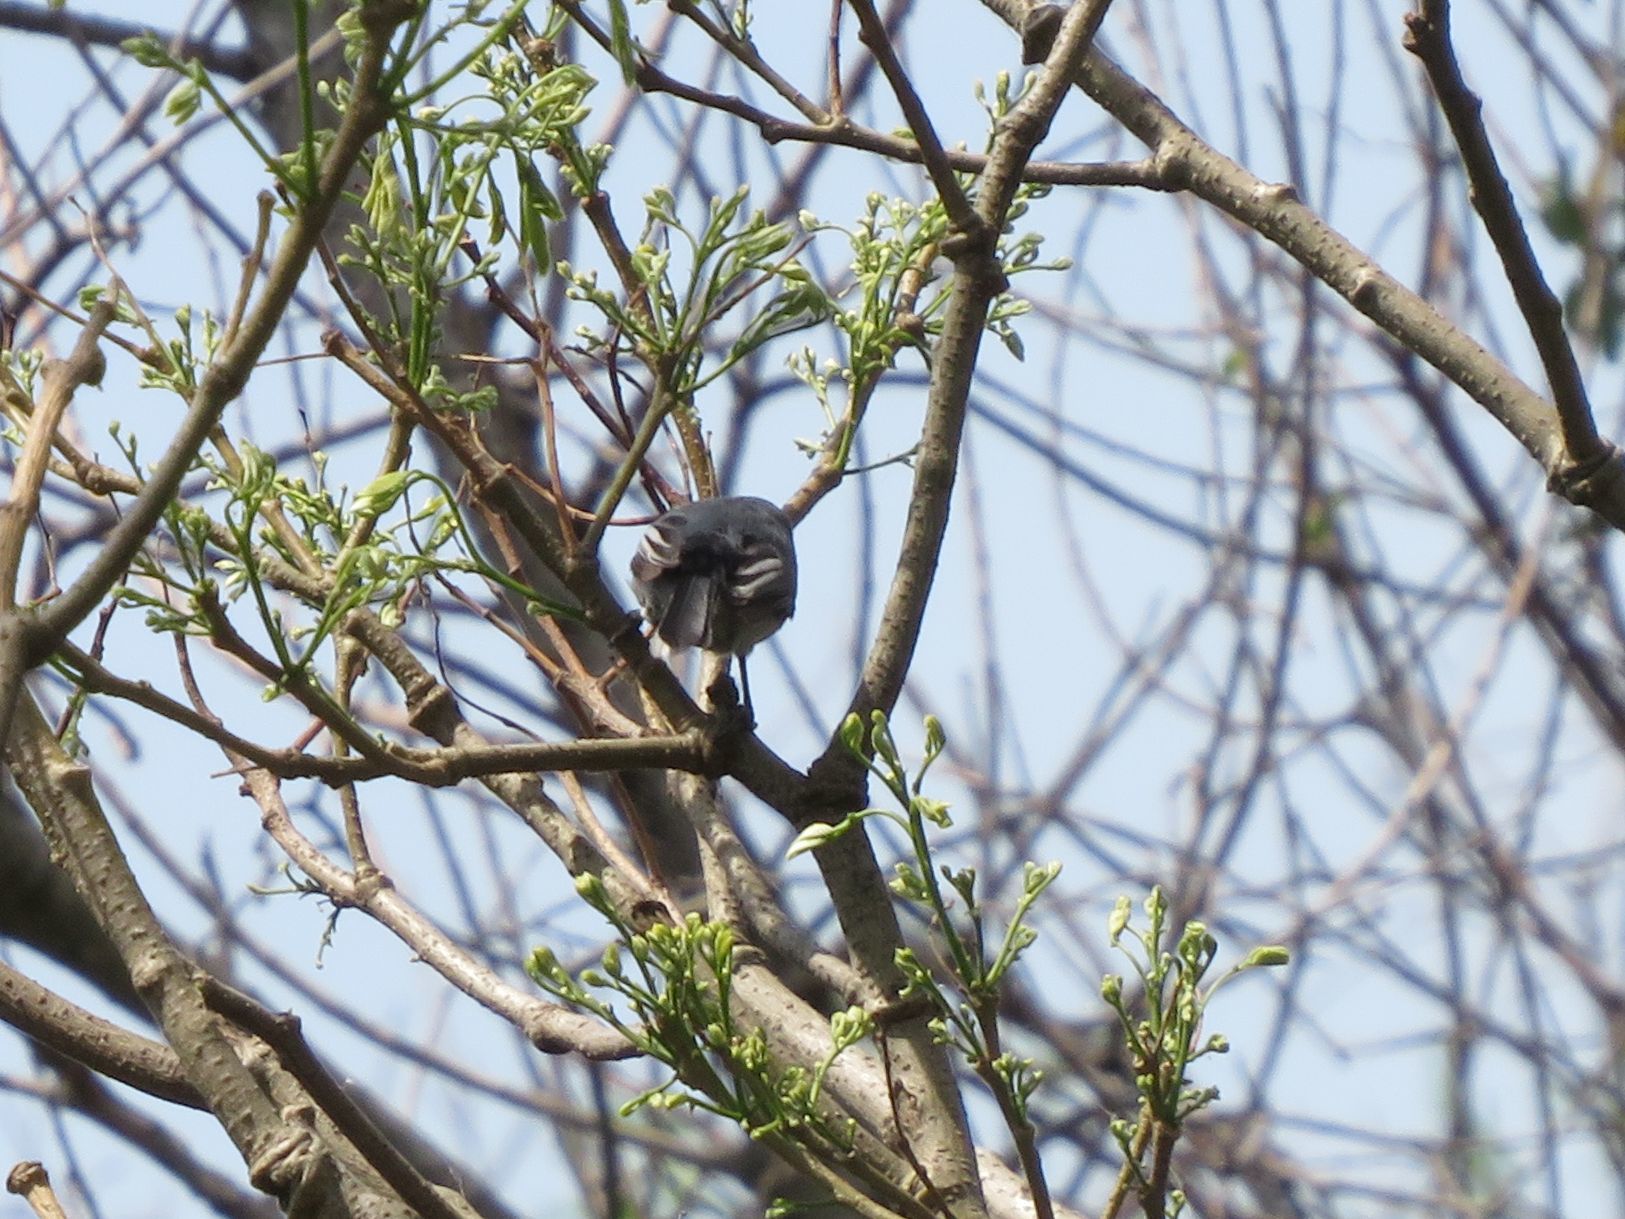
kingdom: Animalia
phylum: Chordata
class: Aves
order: Passeriformes
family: Polioptilidae
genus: Polioptila
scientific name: Polioptila dumicola
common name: Masked gnatcatcher
